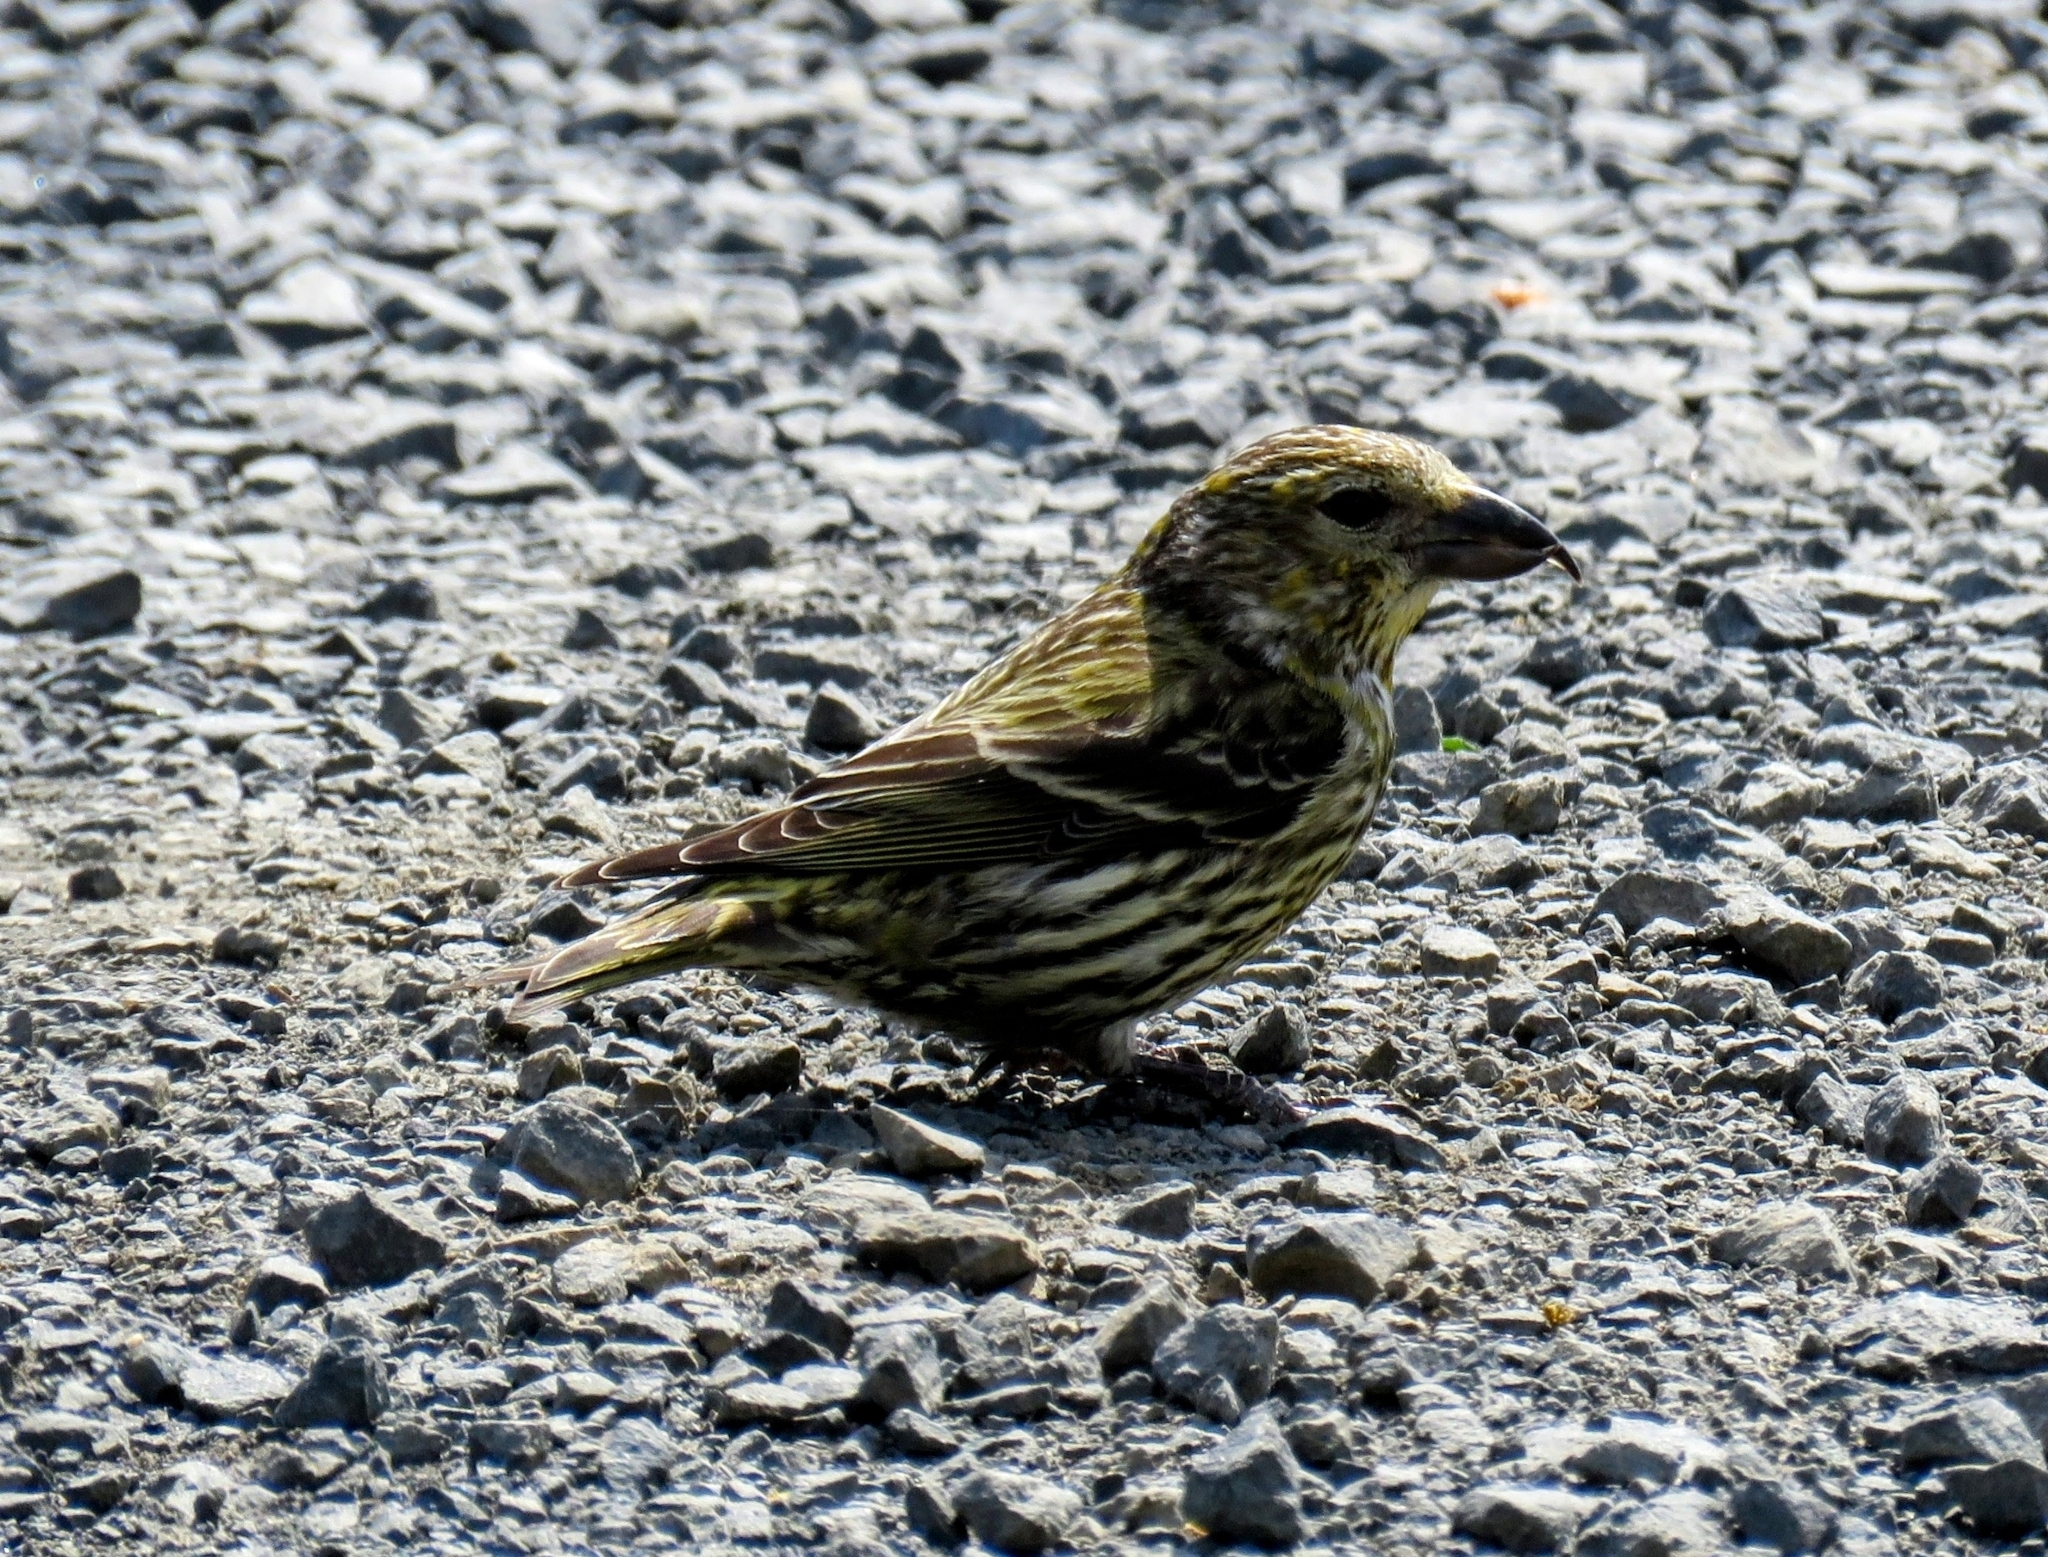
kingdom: Animalia
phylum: Chordata
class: Aves
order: Passeriformes
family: Fringillidae
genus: Loxia
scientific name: Loxia curvirostra
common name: Red crossbill
